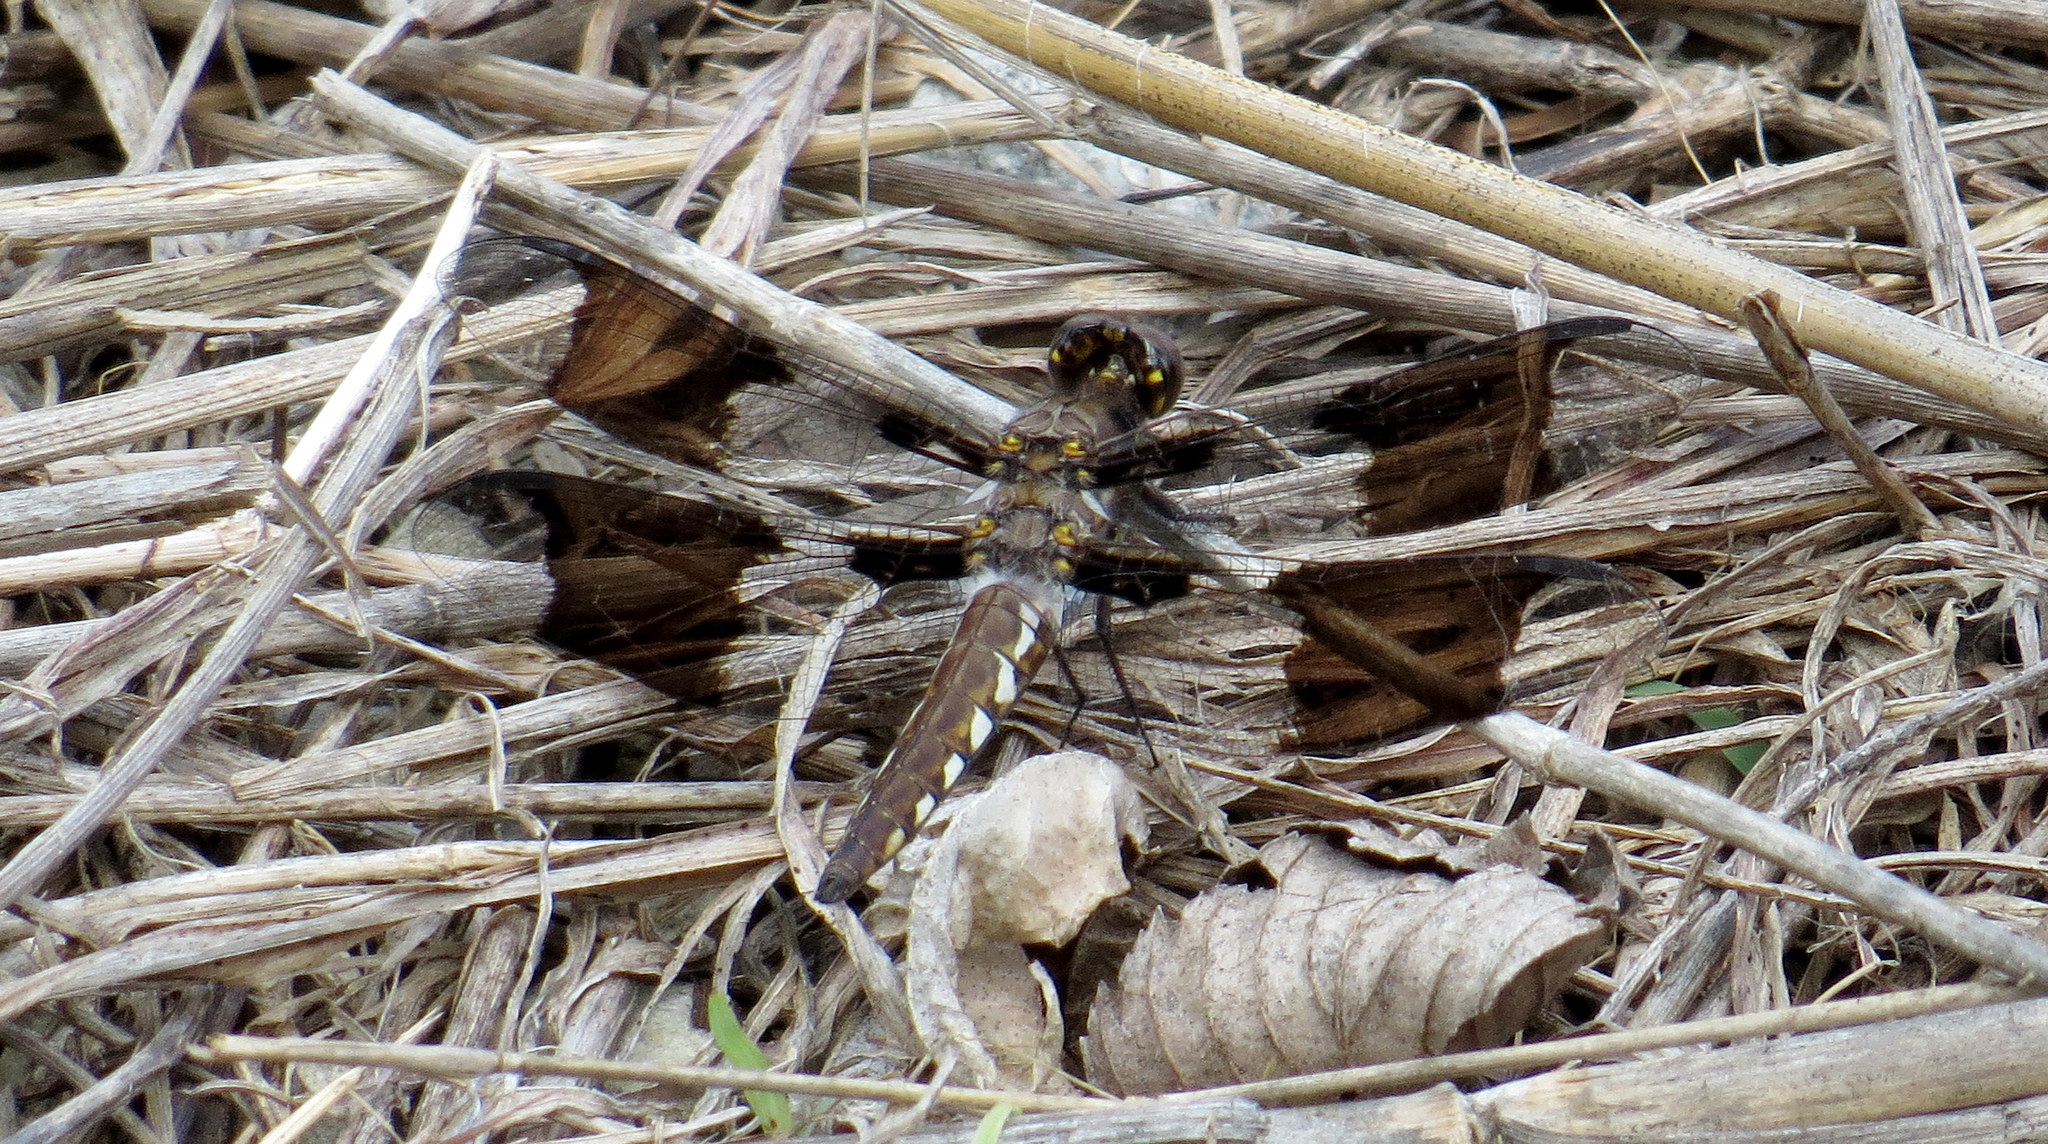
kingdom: Animalia
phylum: Arthropoda
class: Insecta
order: Odonata
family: Libellulidae
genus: Plathemis
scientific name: Plathemis lydia
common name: Common whitetail
